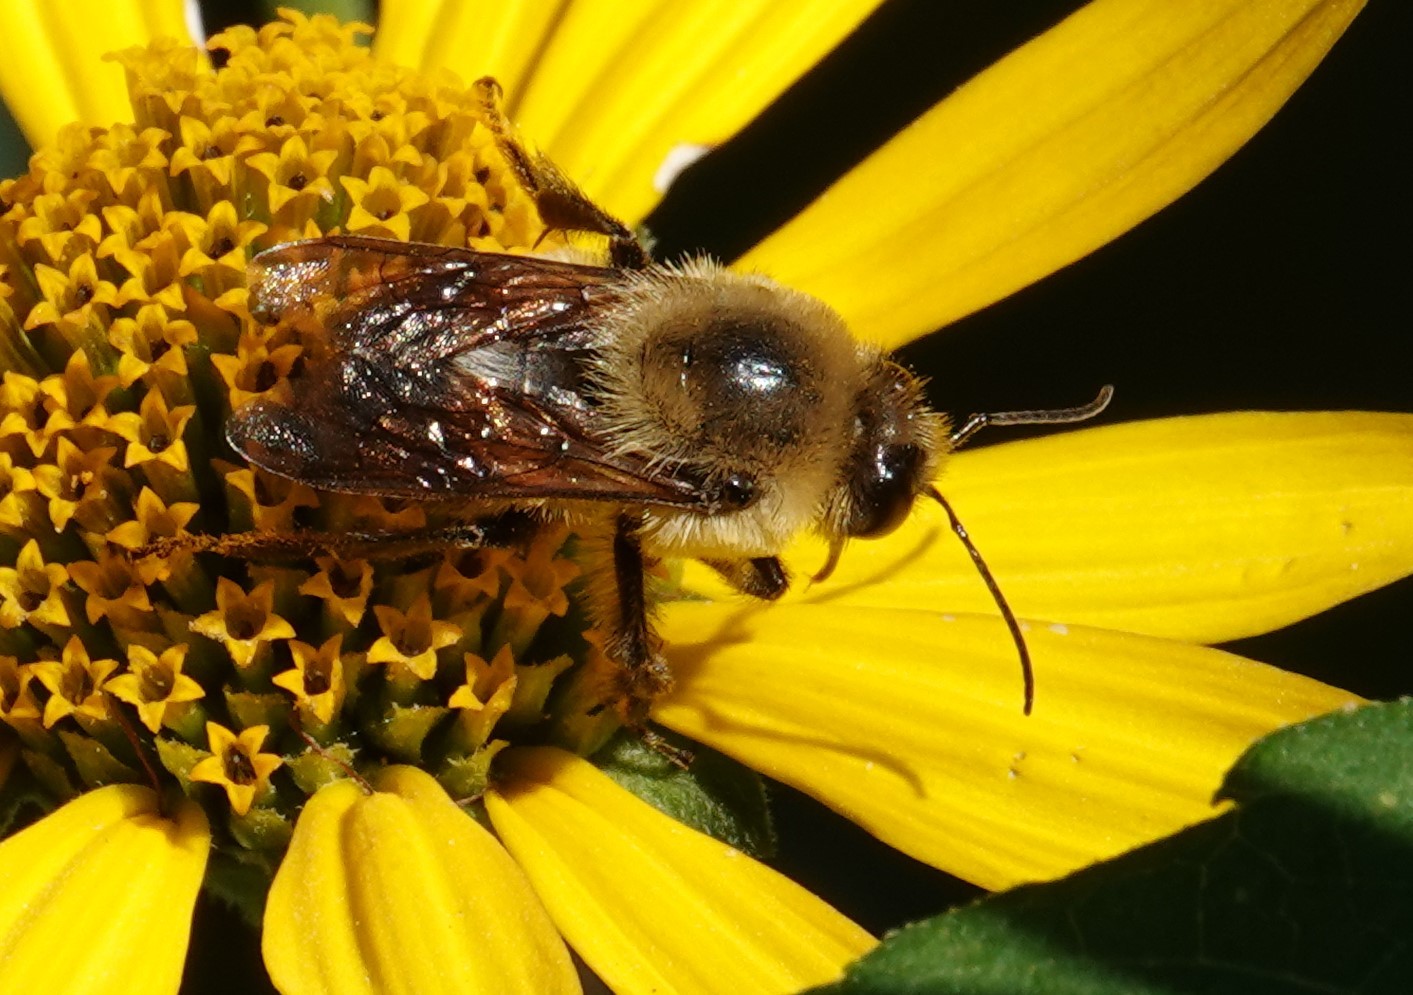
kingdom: Animalia
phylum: Arthropoda
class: Insecta
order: Hymenoptera
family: Apidae
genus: Bombus
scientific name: Bombus griseocollis
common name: Brown-belted bumble bee
